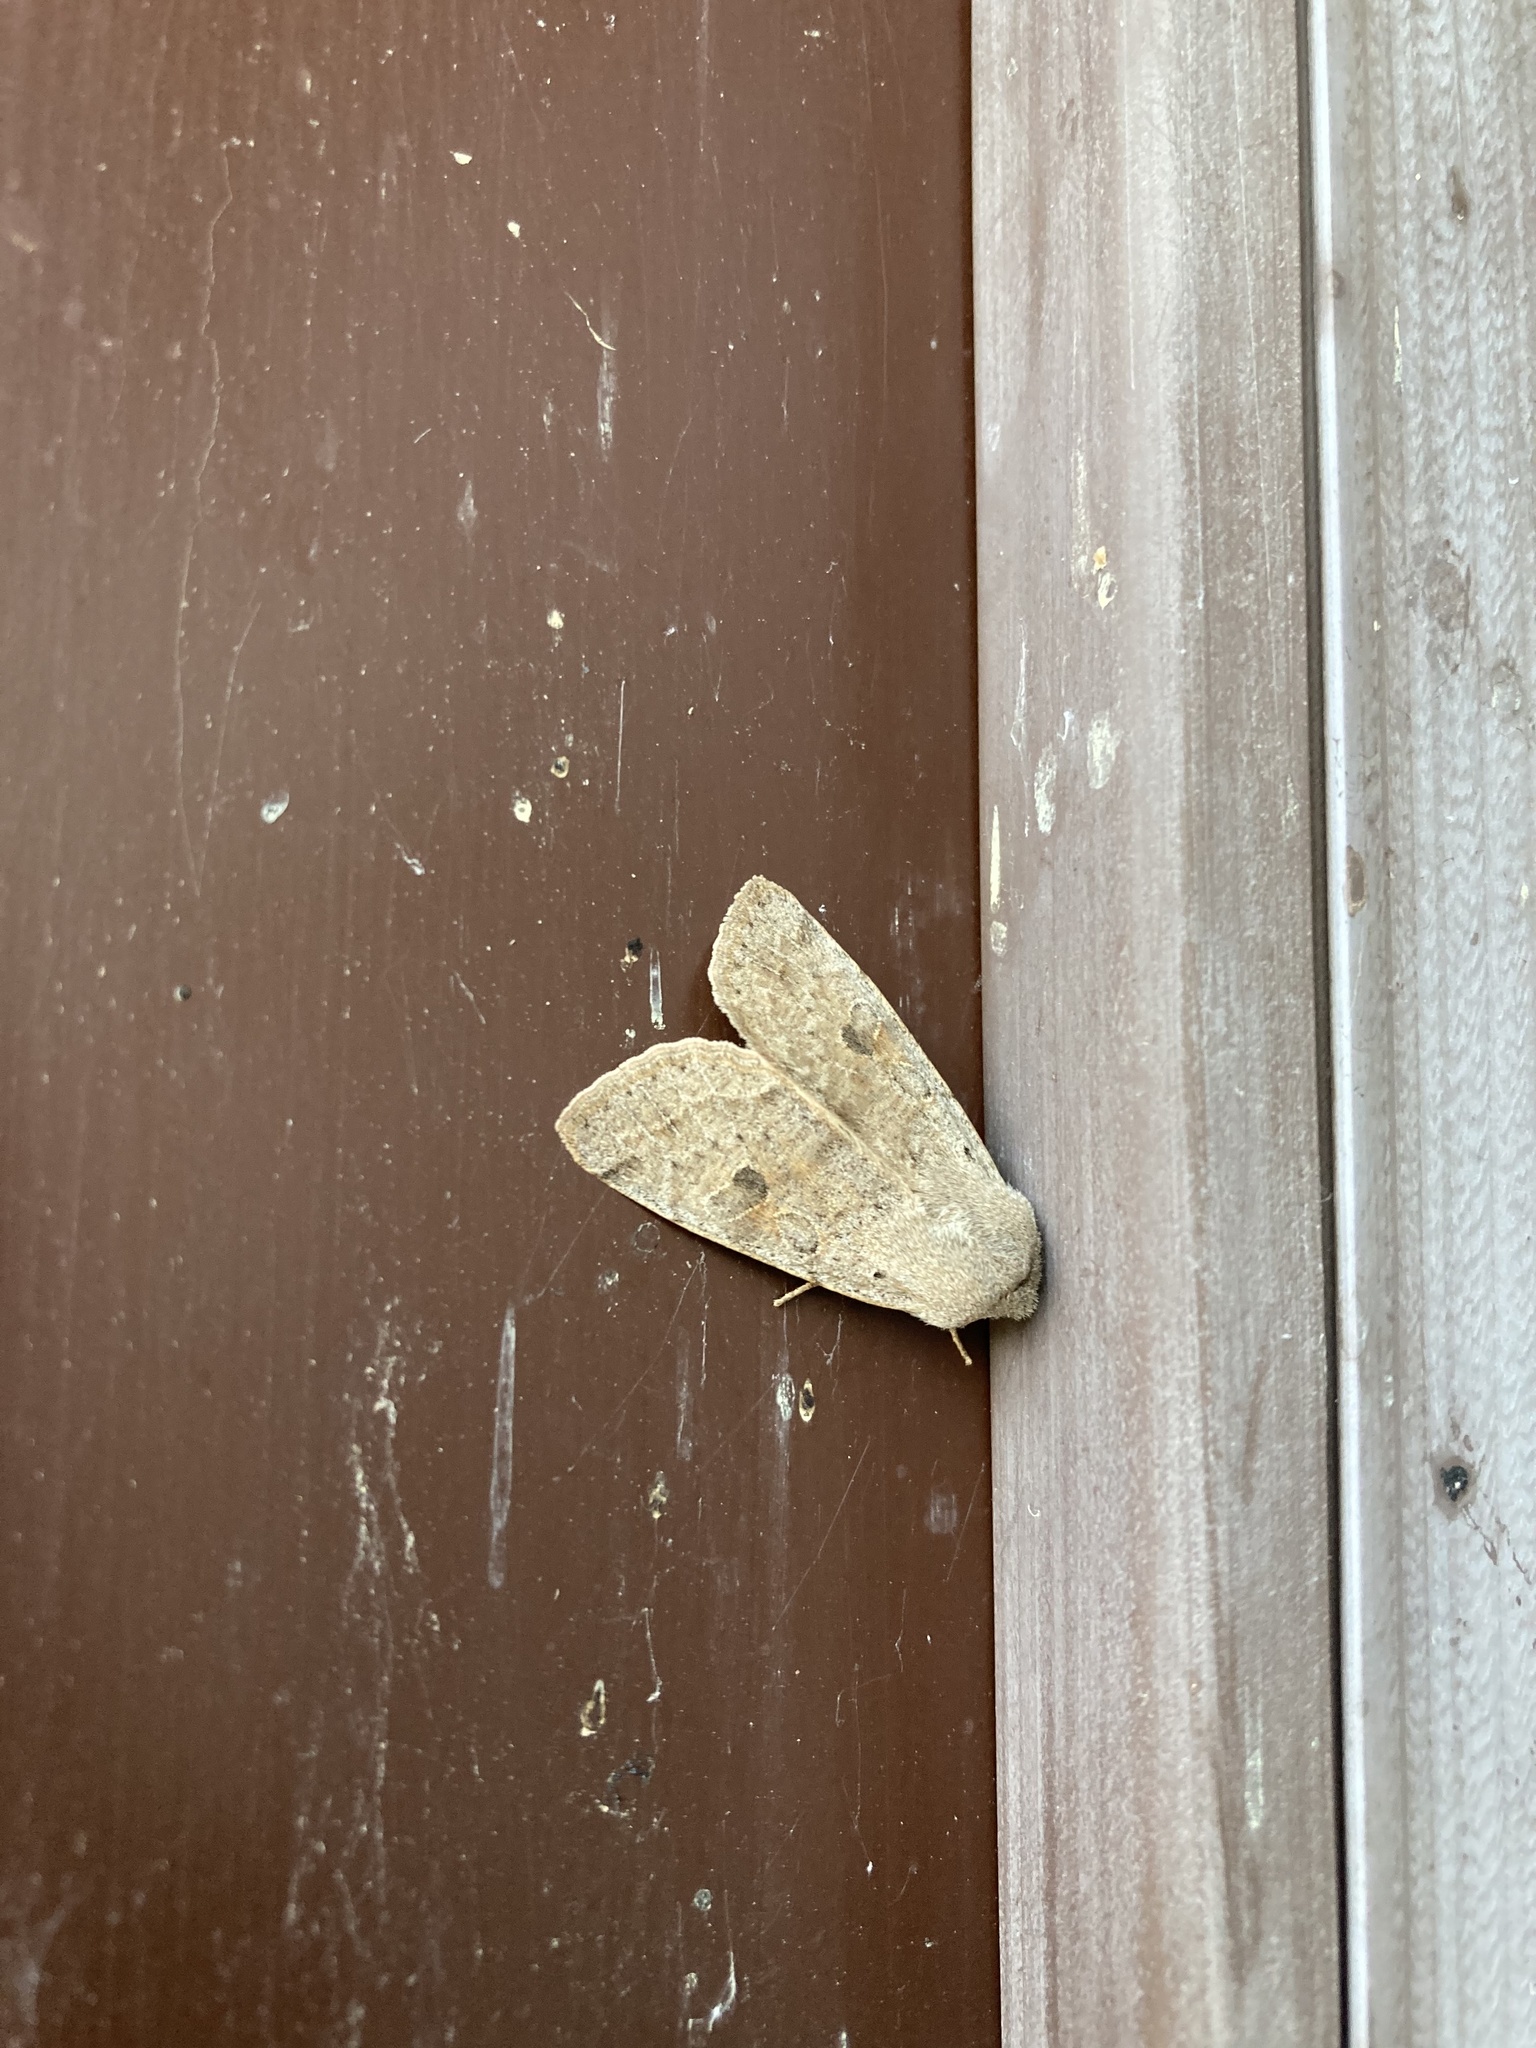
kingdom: Animalia
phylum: Arthropoda
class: Insecta
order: Lepidoptera
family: Noctuidae
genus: Orthosia
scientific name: Orthosia hibisci
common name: Green fruitworm
